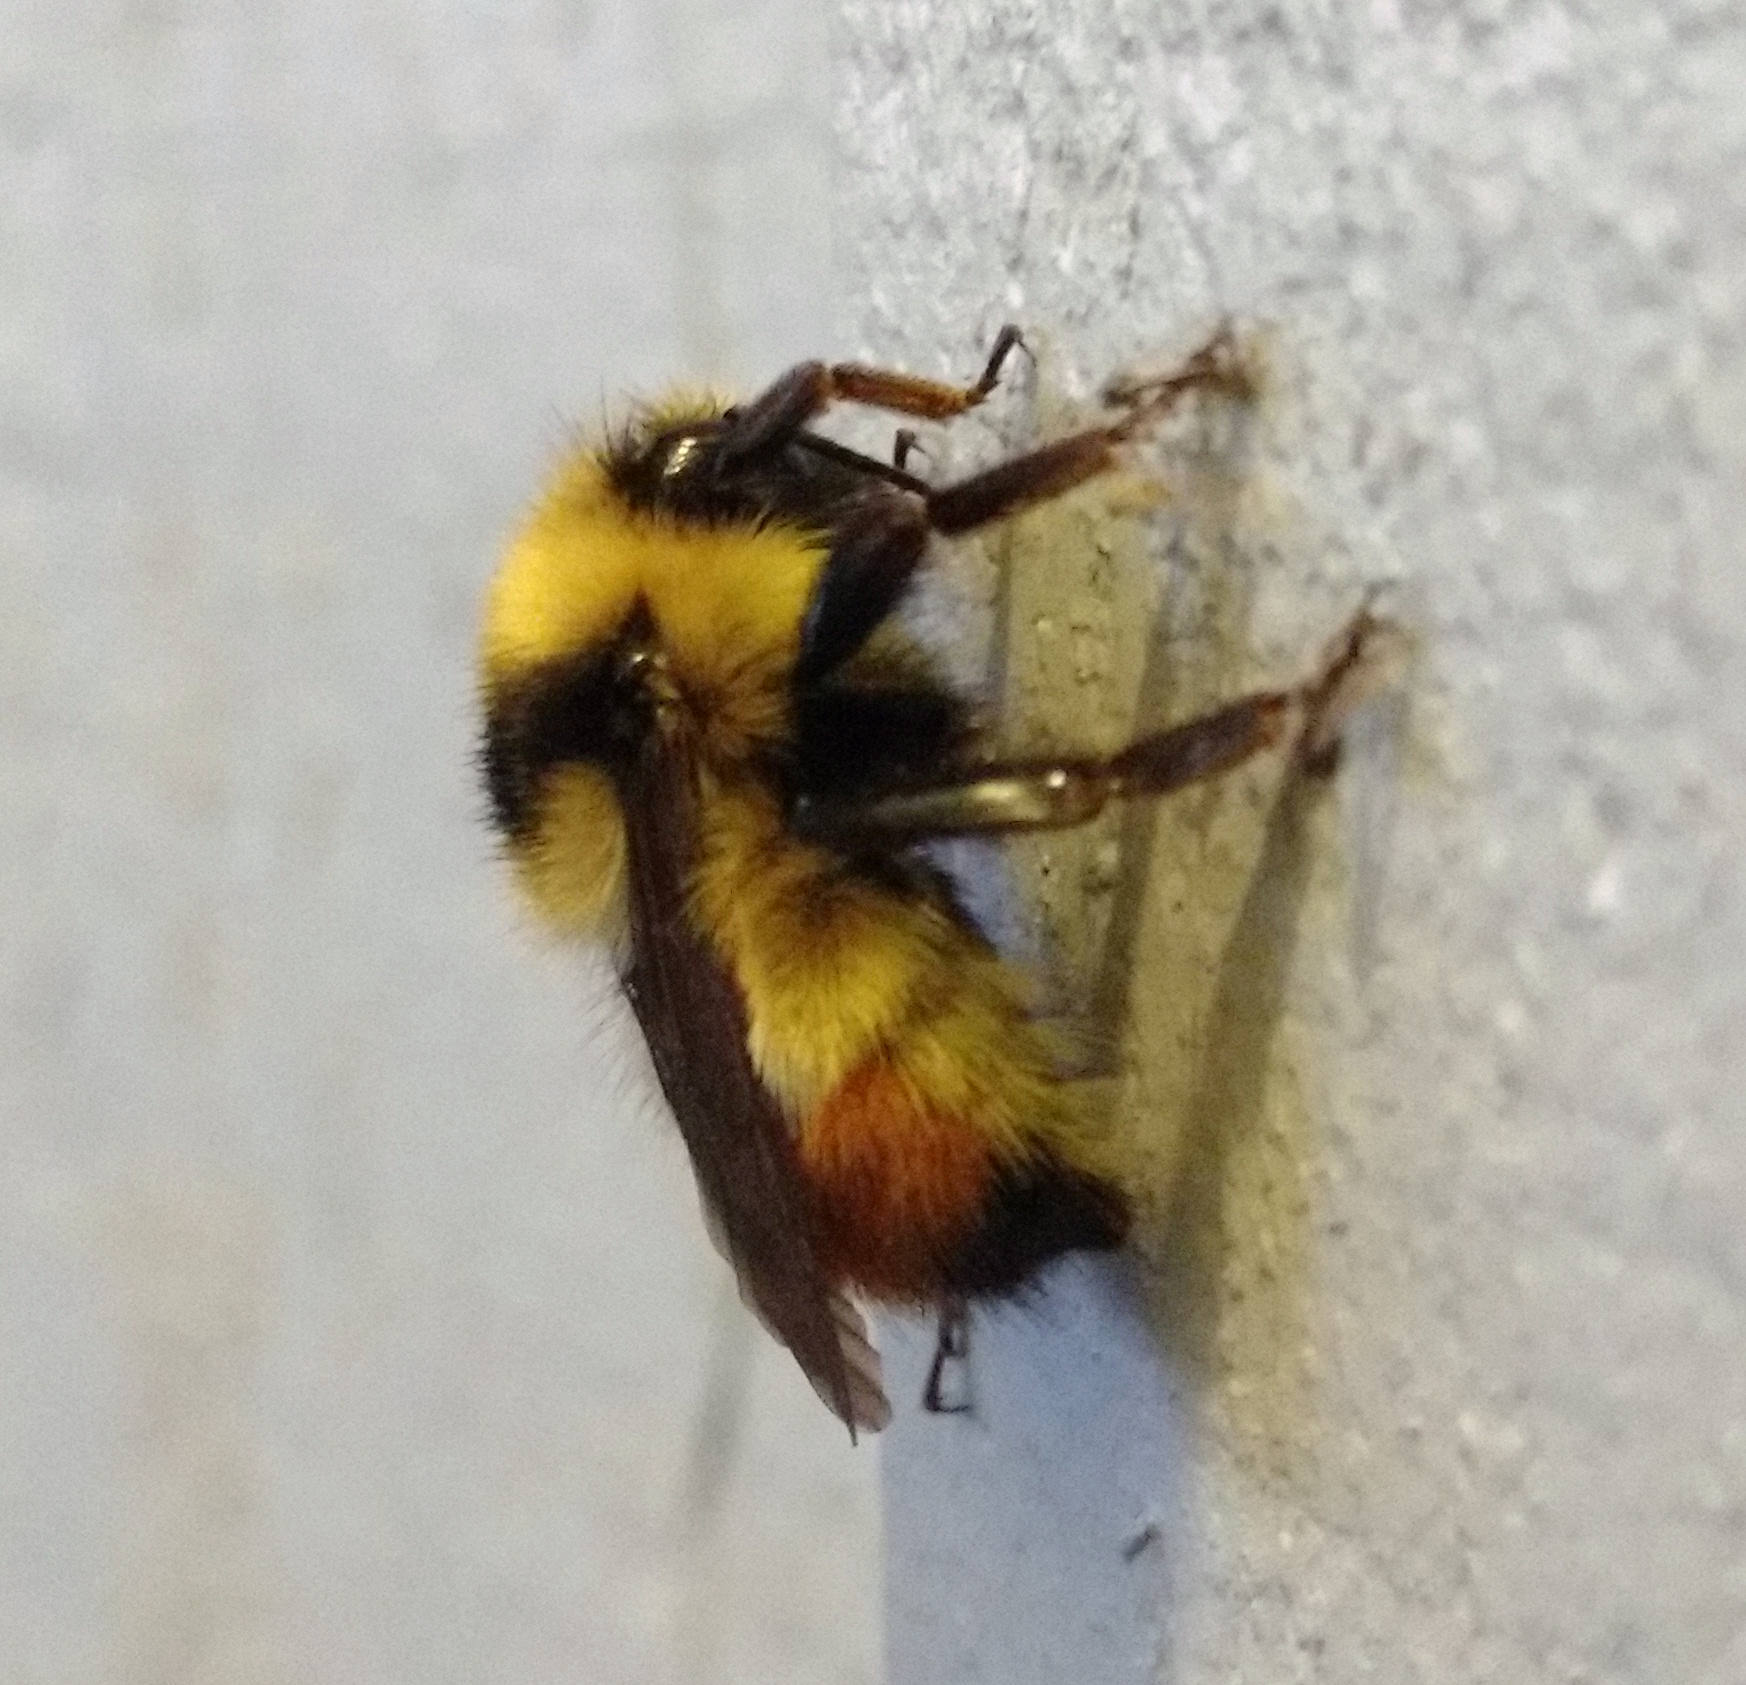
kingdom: Animalia
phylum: Arthropoda
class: Insecta
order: Hymenoptera
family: Apidae
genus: Bombus
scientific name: Bombus centralis
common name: Central bumble bee
